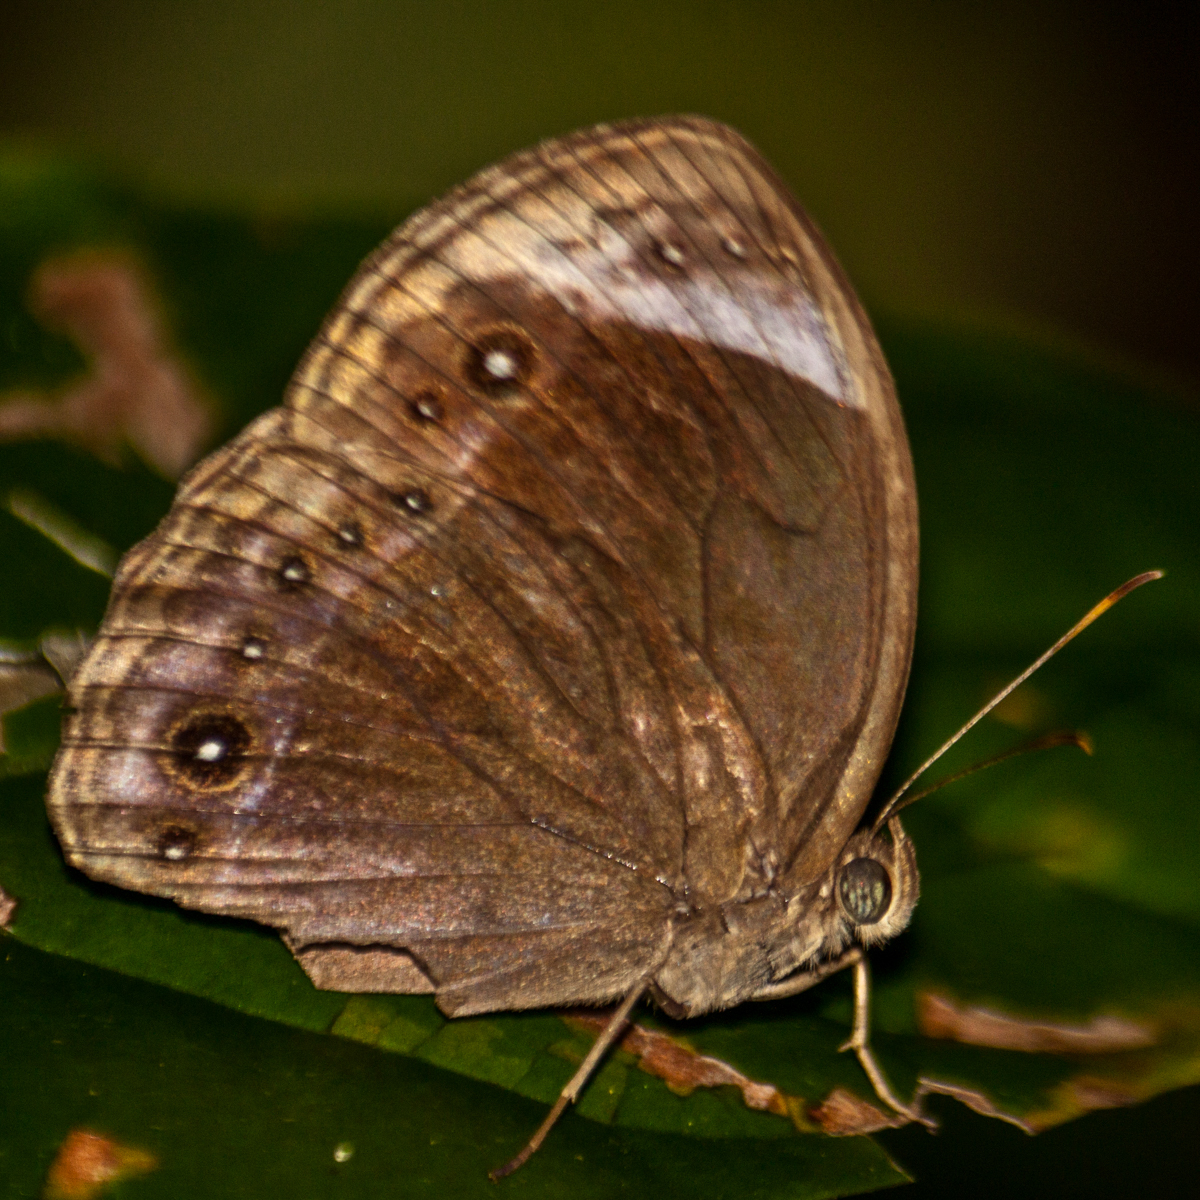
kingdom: Animalia
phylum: Arthropoda
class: Insecta
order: Lepidoptera
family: Nymphalidae
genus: Mycalesis
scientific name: Mycalesis anaxioides
